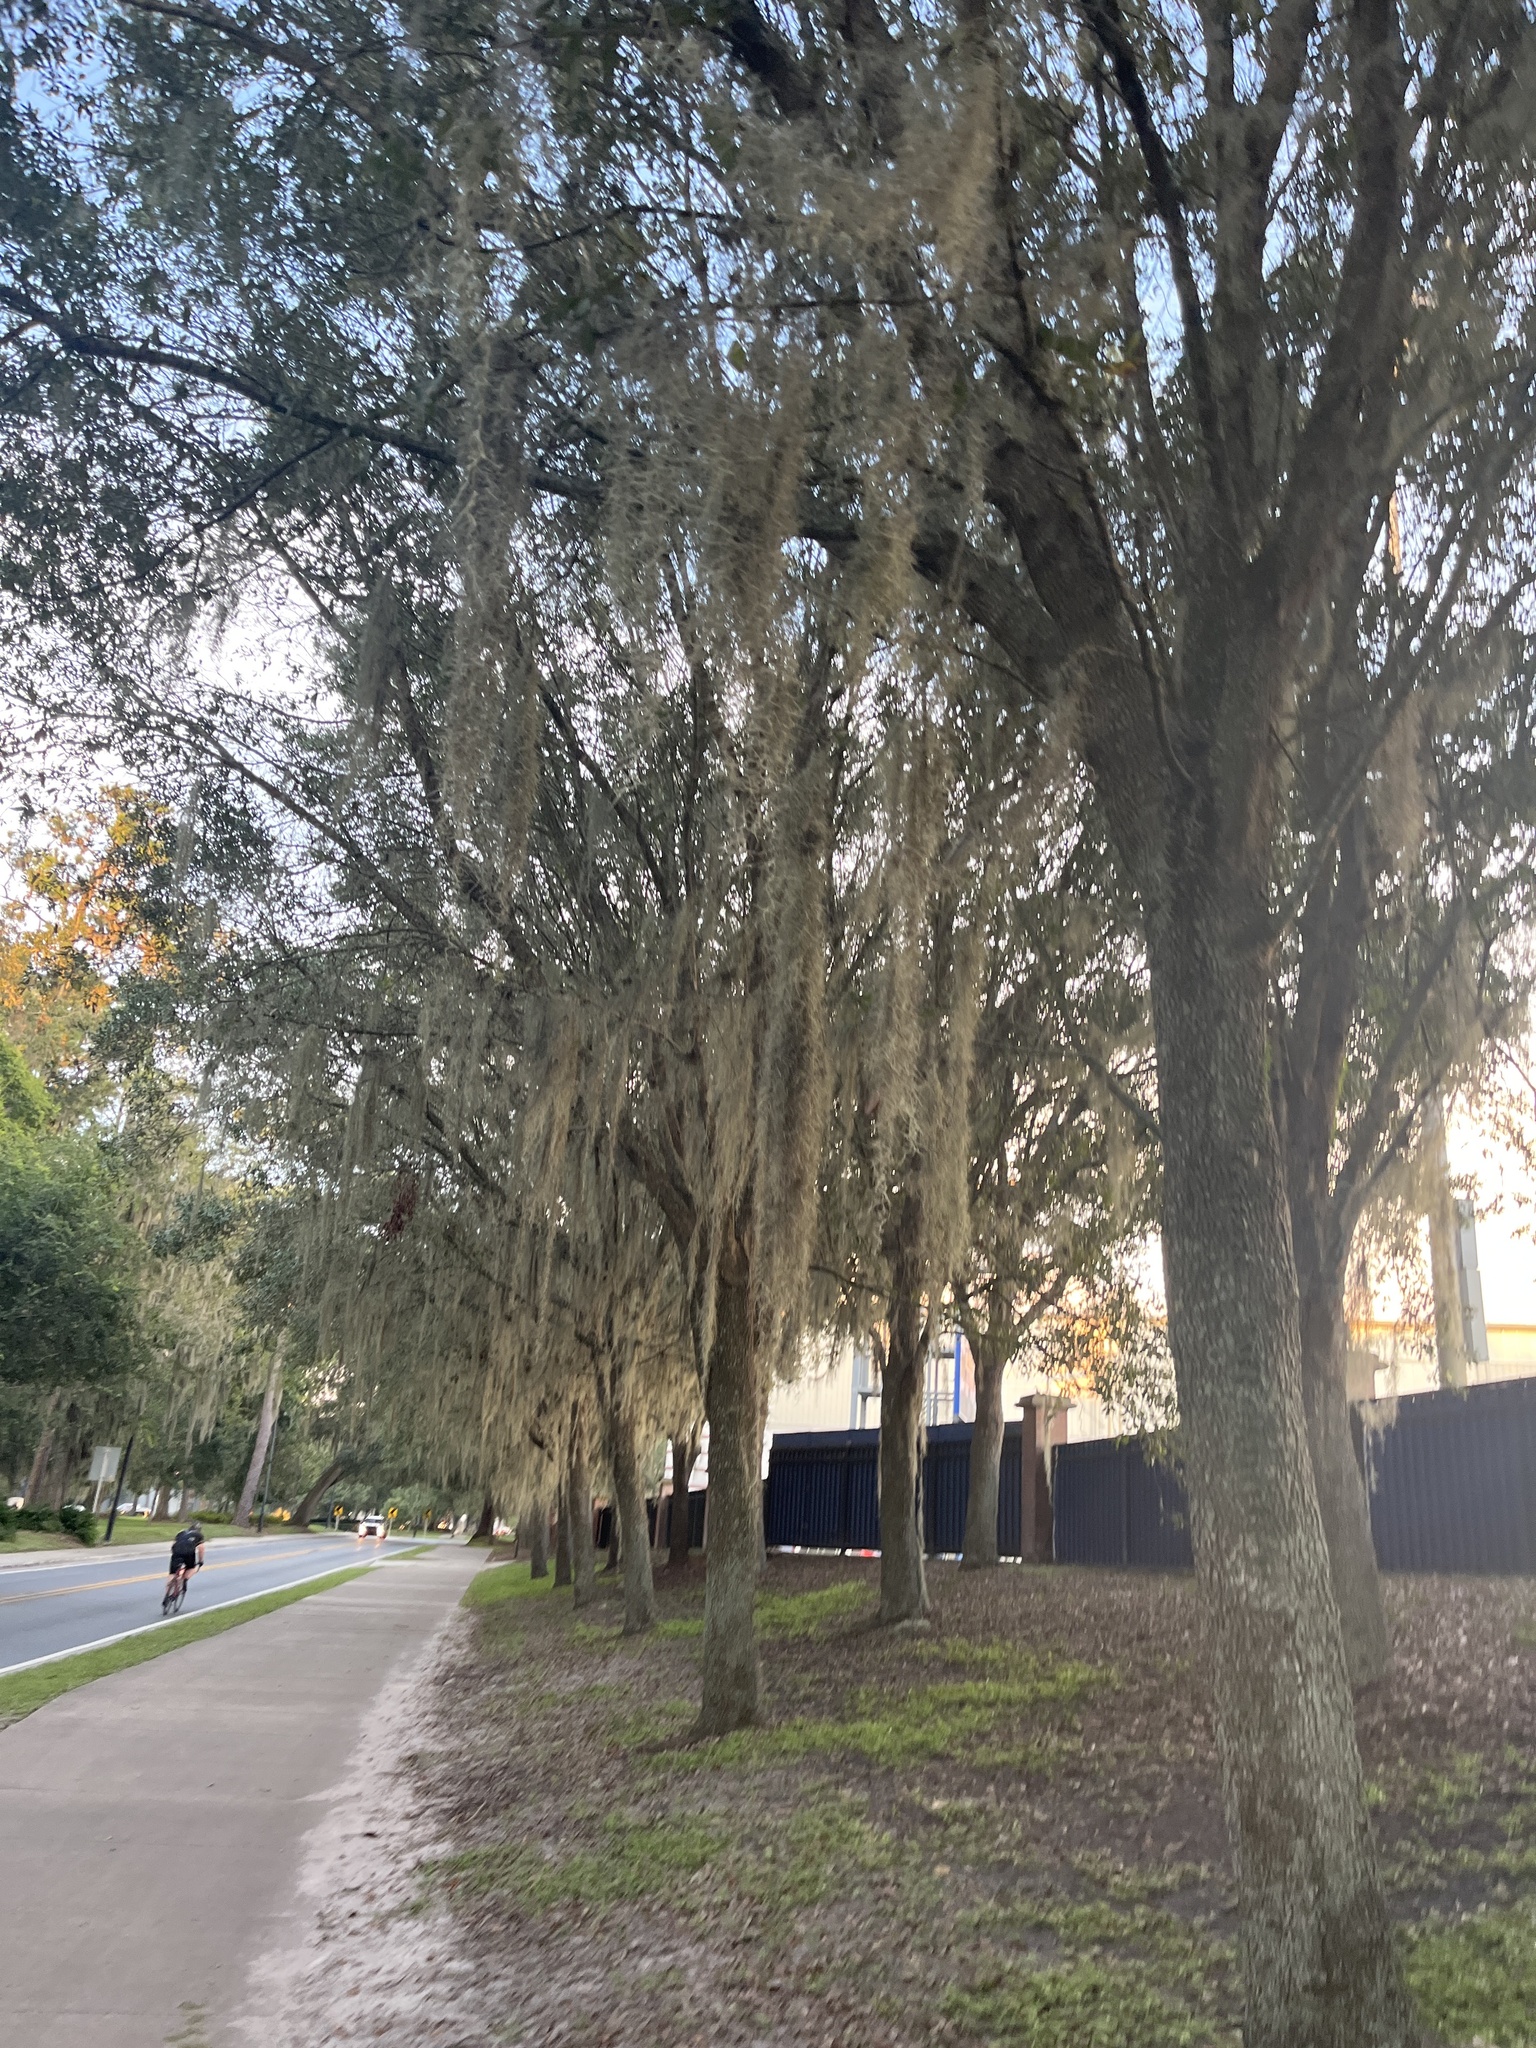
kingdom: Plantae
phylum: Tracheophyta
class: Liliopsida
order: Poales
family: Bromeliaceae
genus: Tillandsia
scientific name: Tillandsia usneoides
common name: Spanish moss
